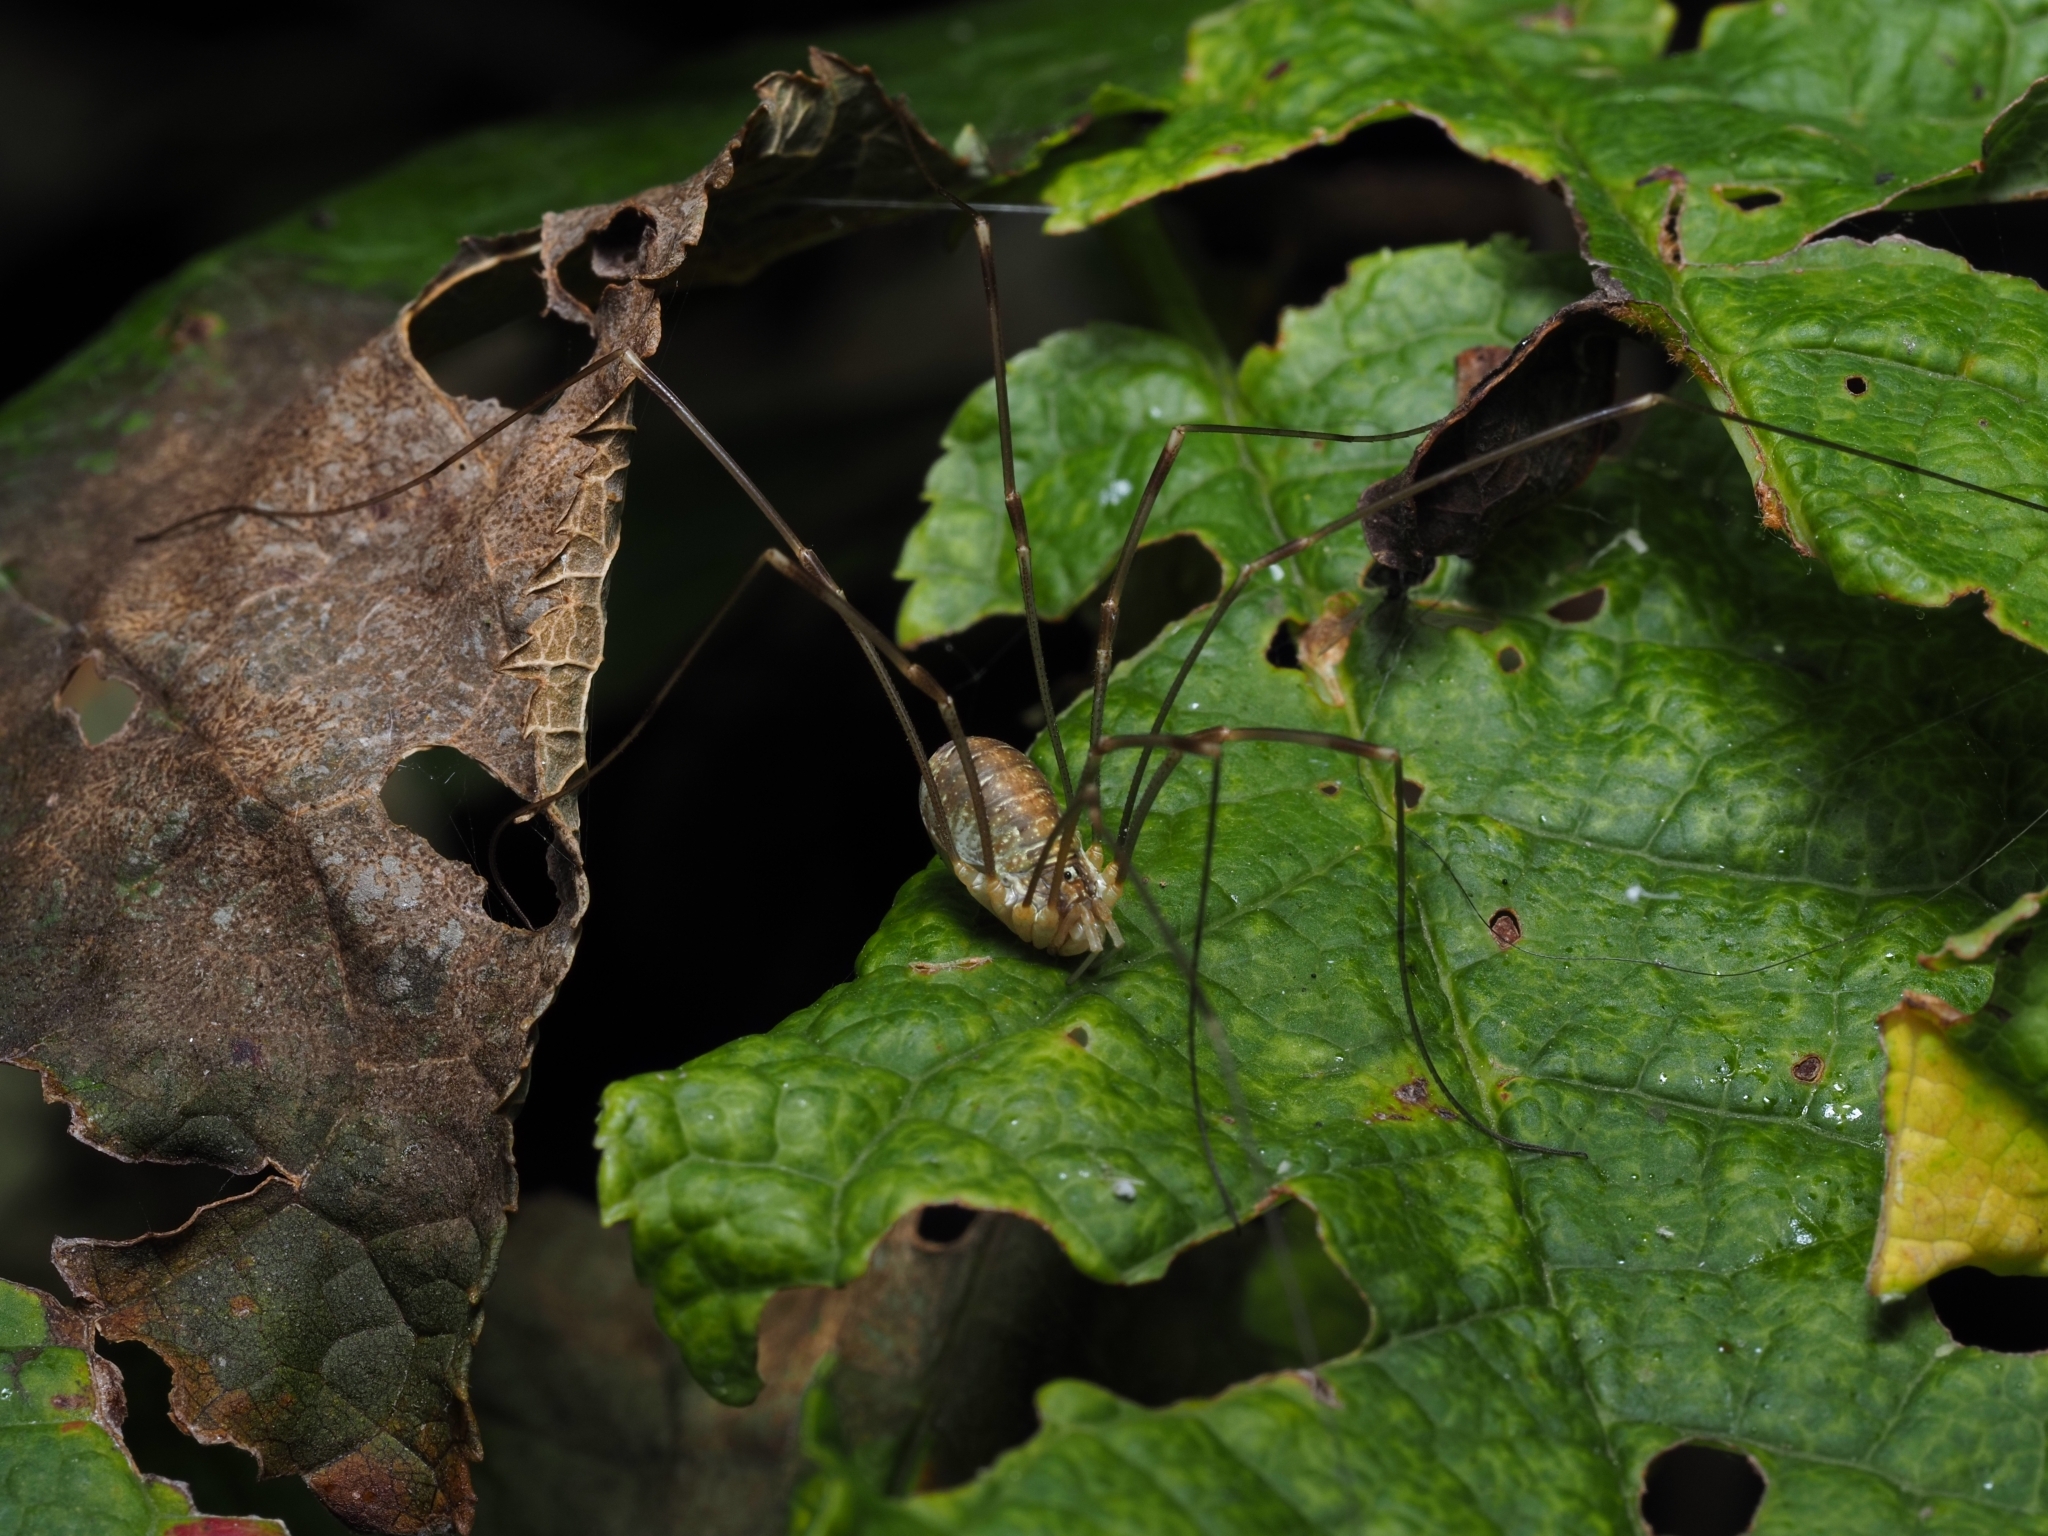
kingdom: Animalia
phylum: Arthropoda
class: Arachnida
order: Opiliones
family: Phalangiidae
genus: Opilio
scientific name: Opilio canestrinii
